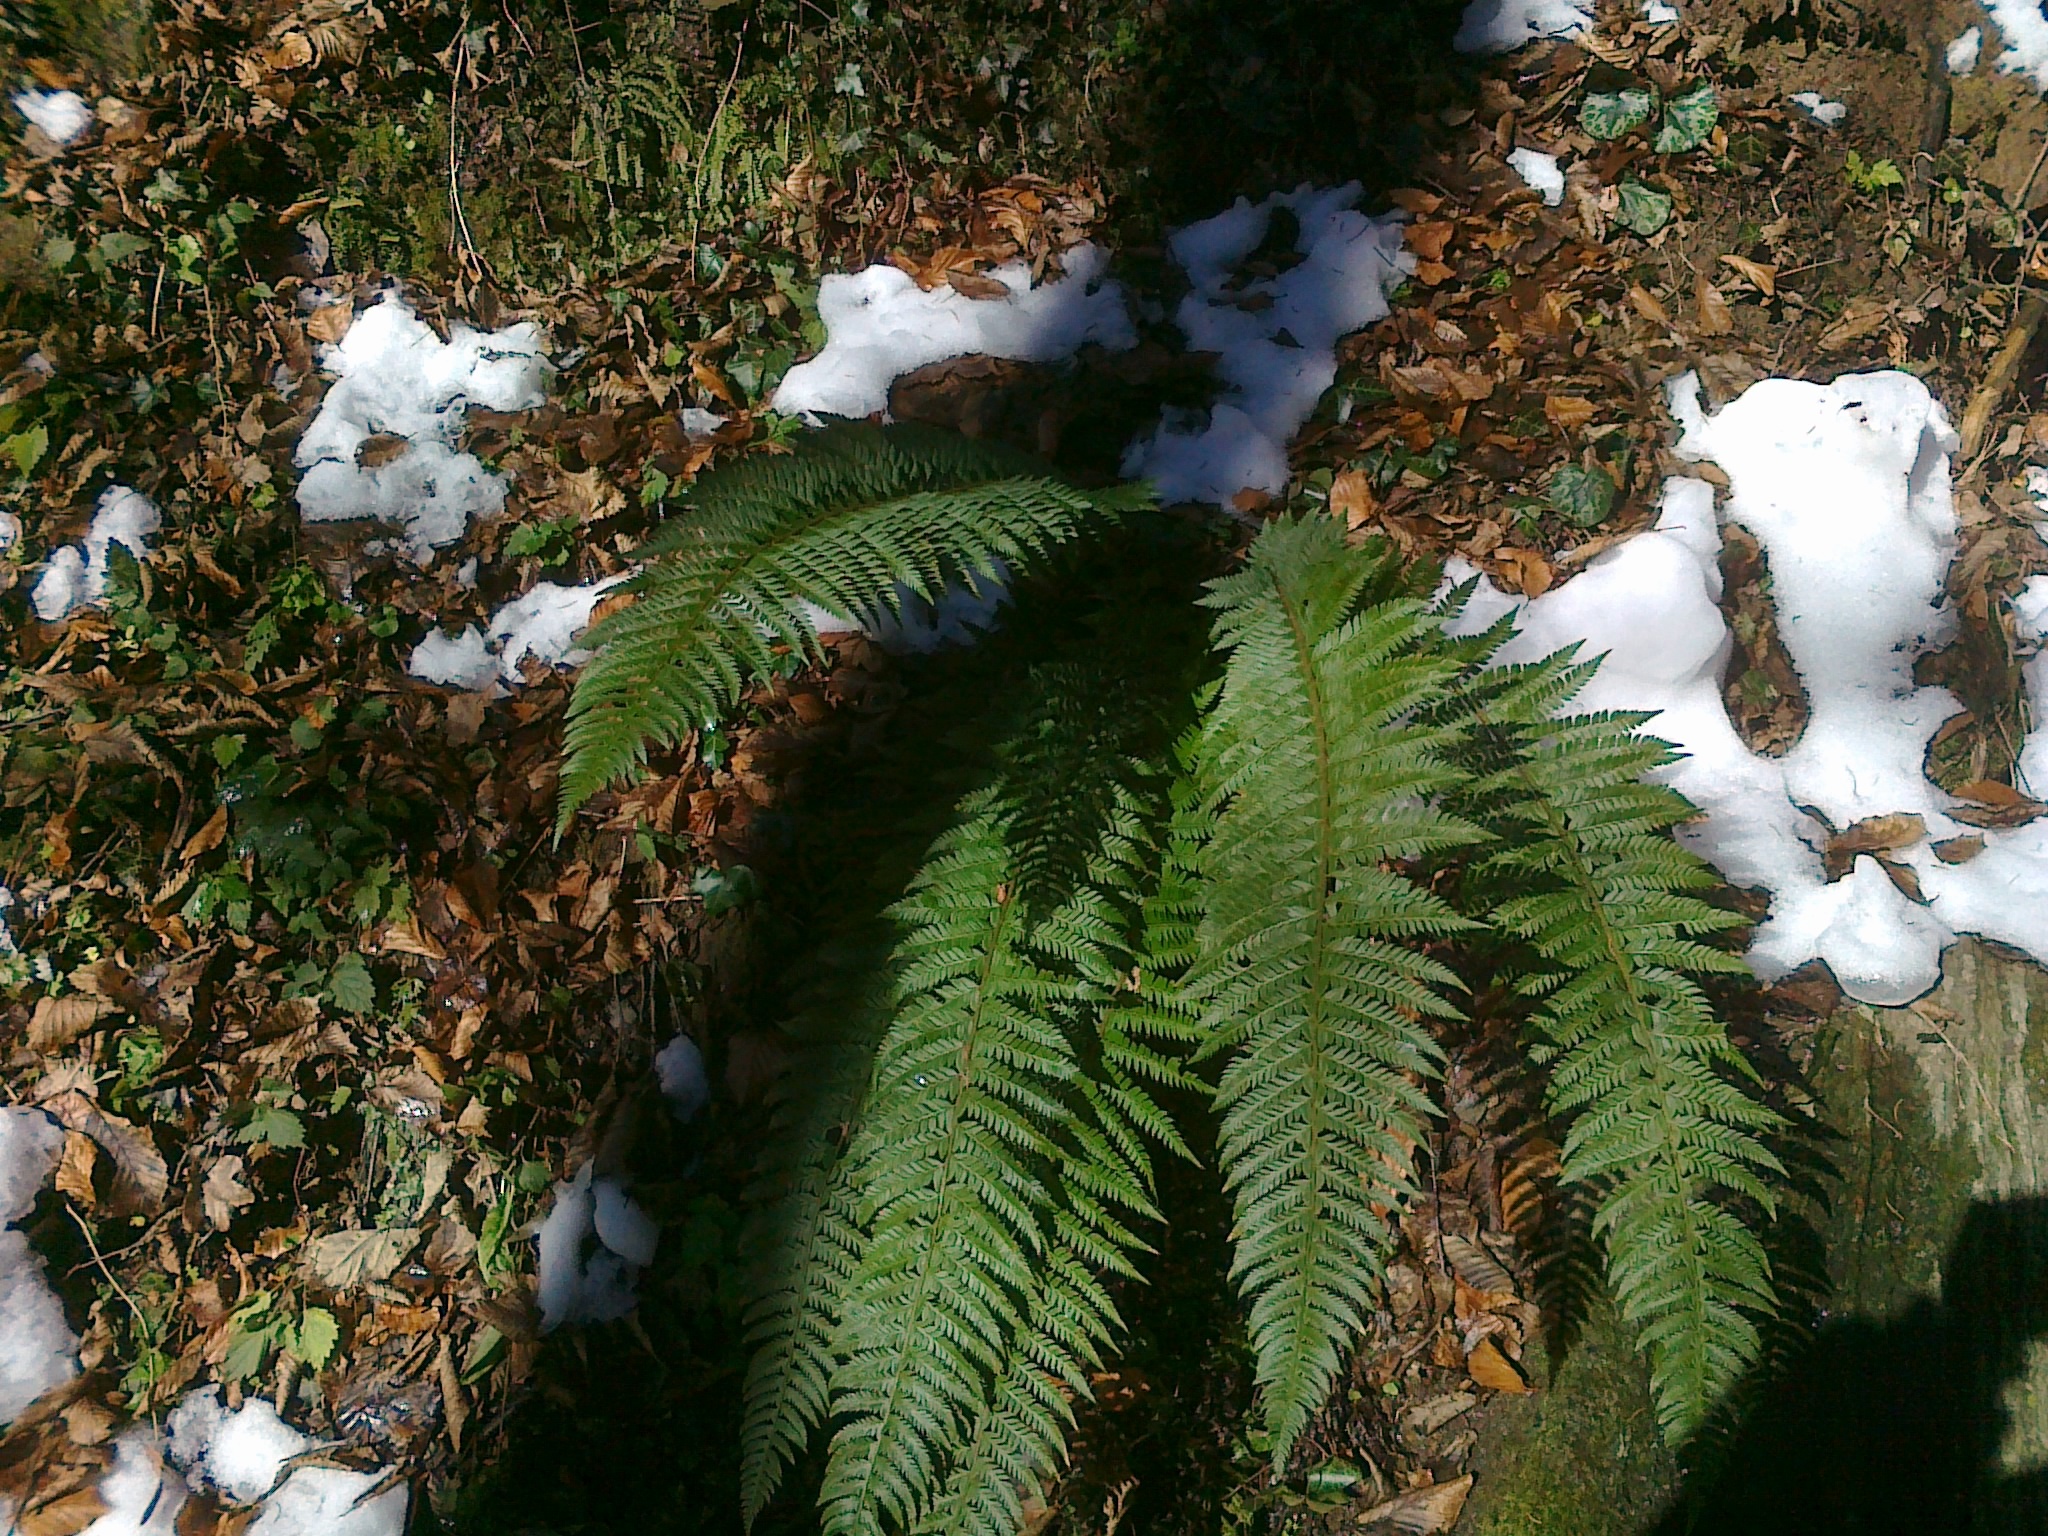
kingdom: Plantae
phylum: Tracheophyta
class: Polypodiopsida
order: Polypodiales
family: Dryopteridaceae
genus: Polystichum
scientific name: Polystichum aculeatum
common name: Hard shield-fern
